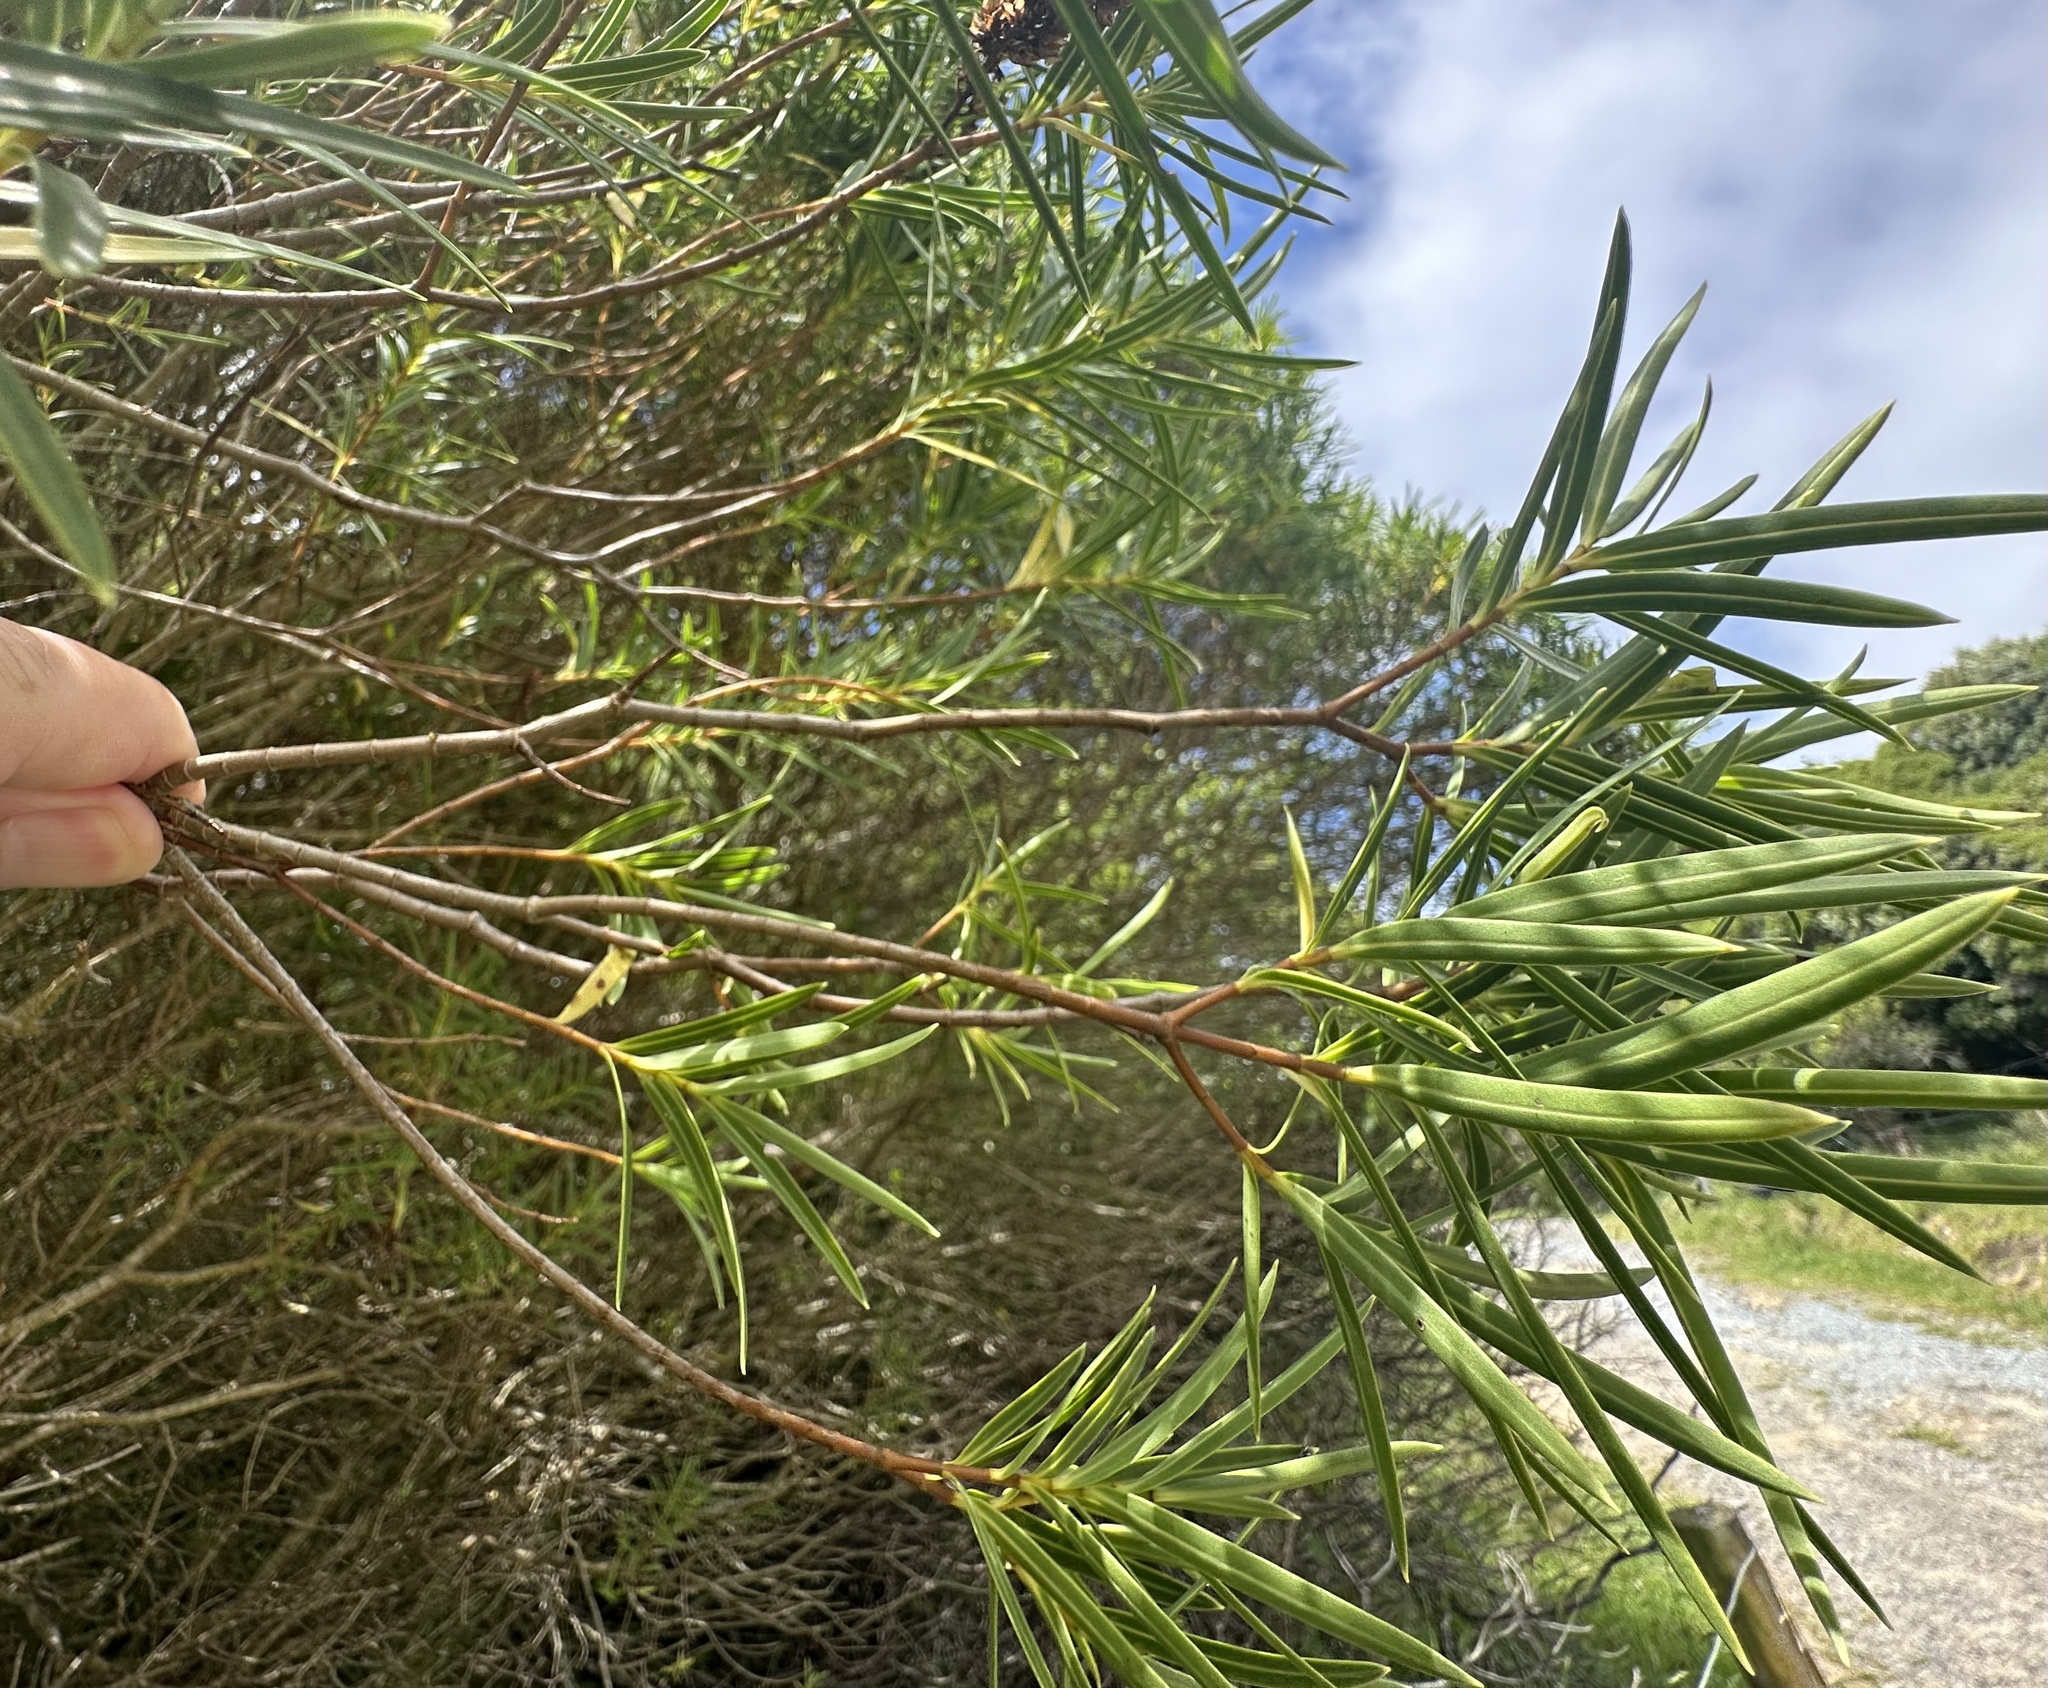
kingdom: Plantae
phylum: Tracheophyta
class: Magnoliopsida
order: Lamiales
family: Plantaginaceae
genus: Veronica
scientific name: Veronica parviflora
